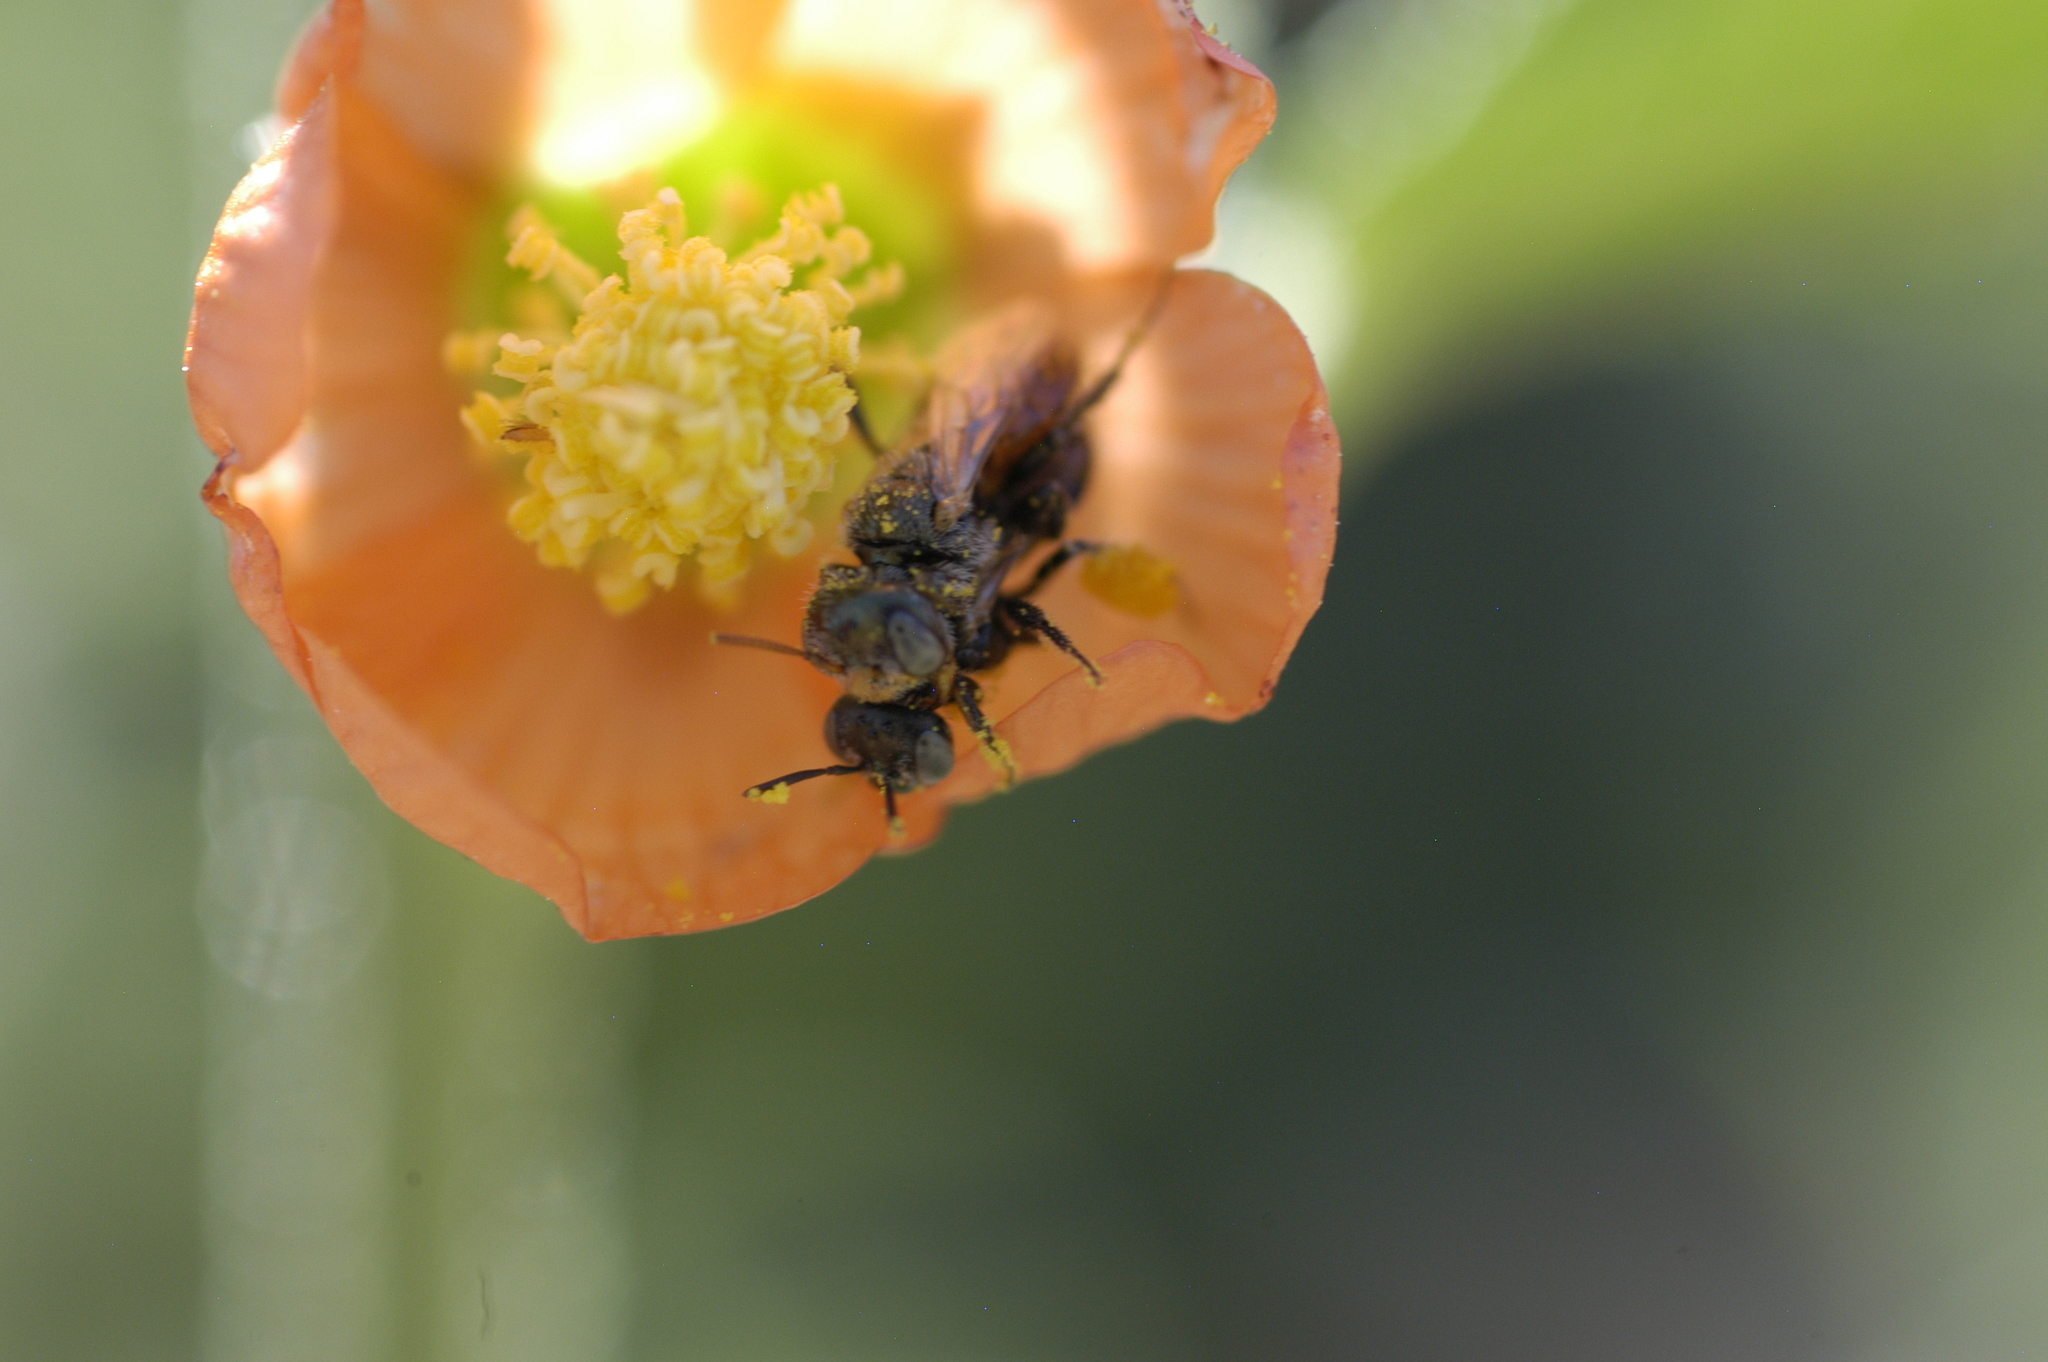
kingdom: Animalia
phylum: Arthropoda
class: Insecta
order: Hymenoptera
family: Andrenidae
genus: Macrotera
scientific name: Macrotera latior
